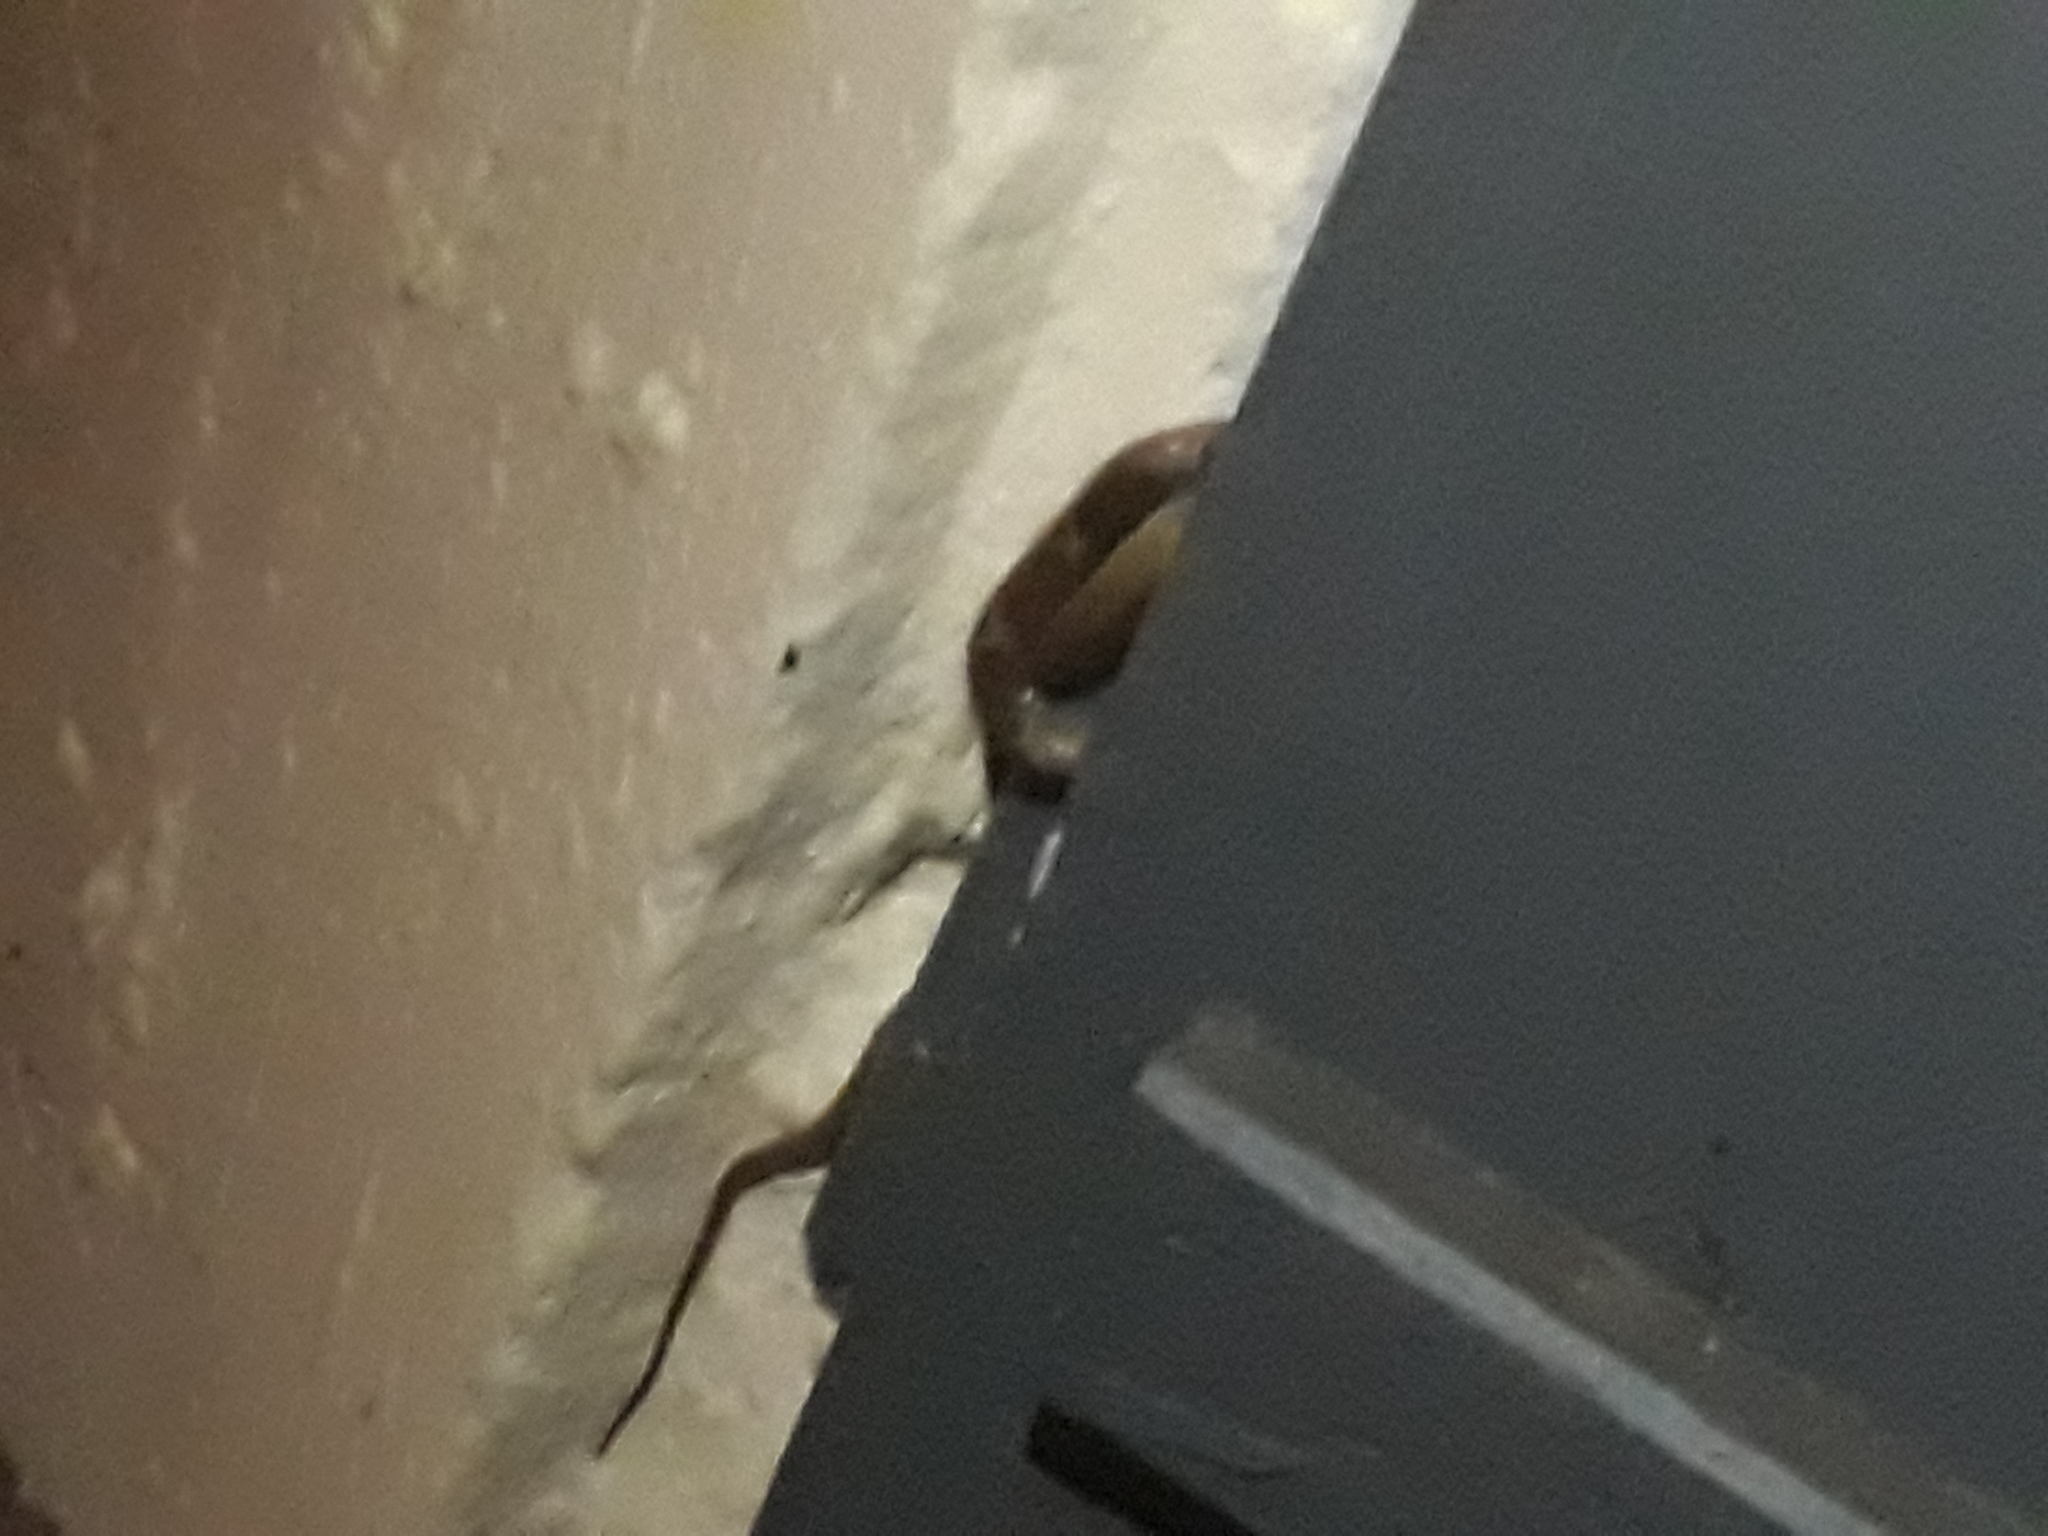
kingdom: Animalia
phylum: Chordata
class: Squamata
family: Colubridae
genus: Lycodon
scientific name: Lycodon aulicus
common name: Common wolf snake
